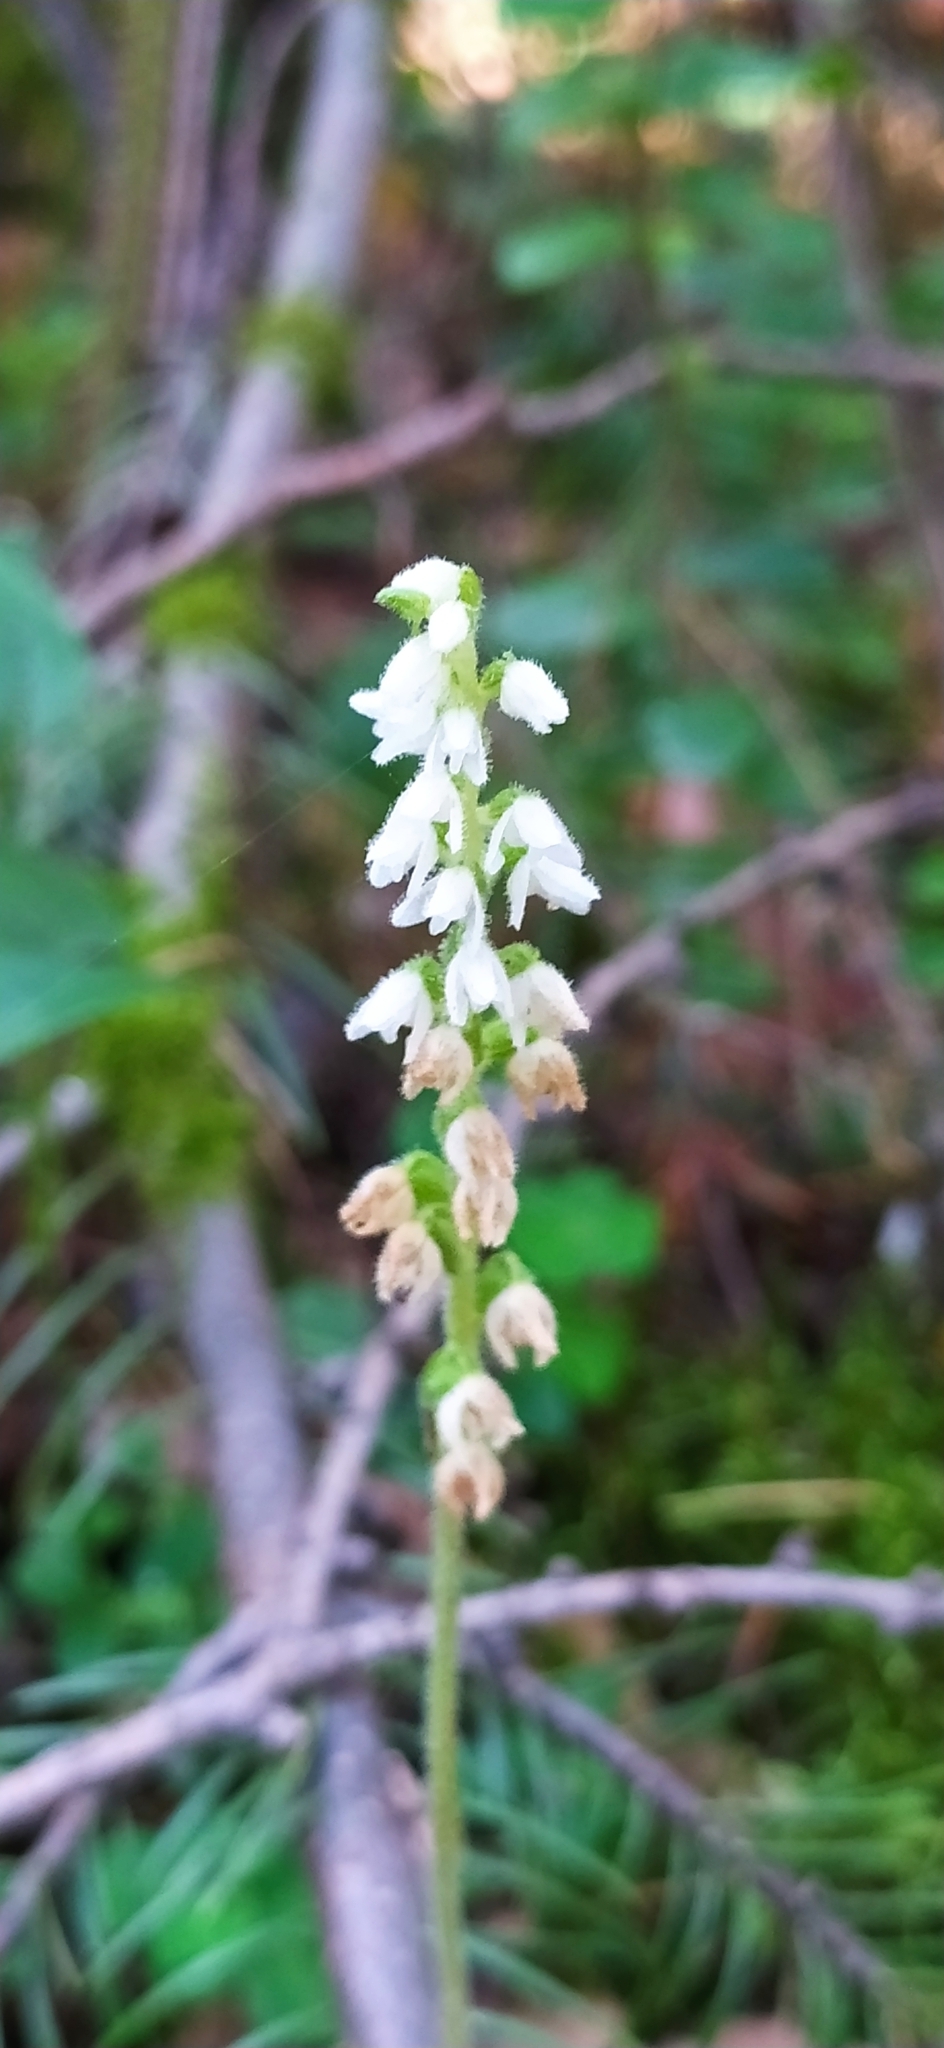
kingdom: Plantae
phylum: Tracheophyta
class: Liliopsida
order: Asparagales
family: Orchidaceae
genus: Goodyera
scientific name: Goodyera repens
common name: Creeping lady's-tresses
